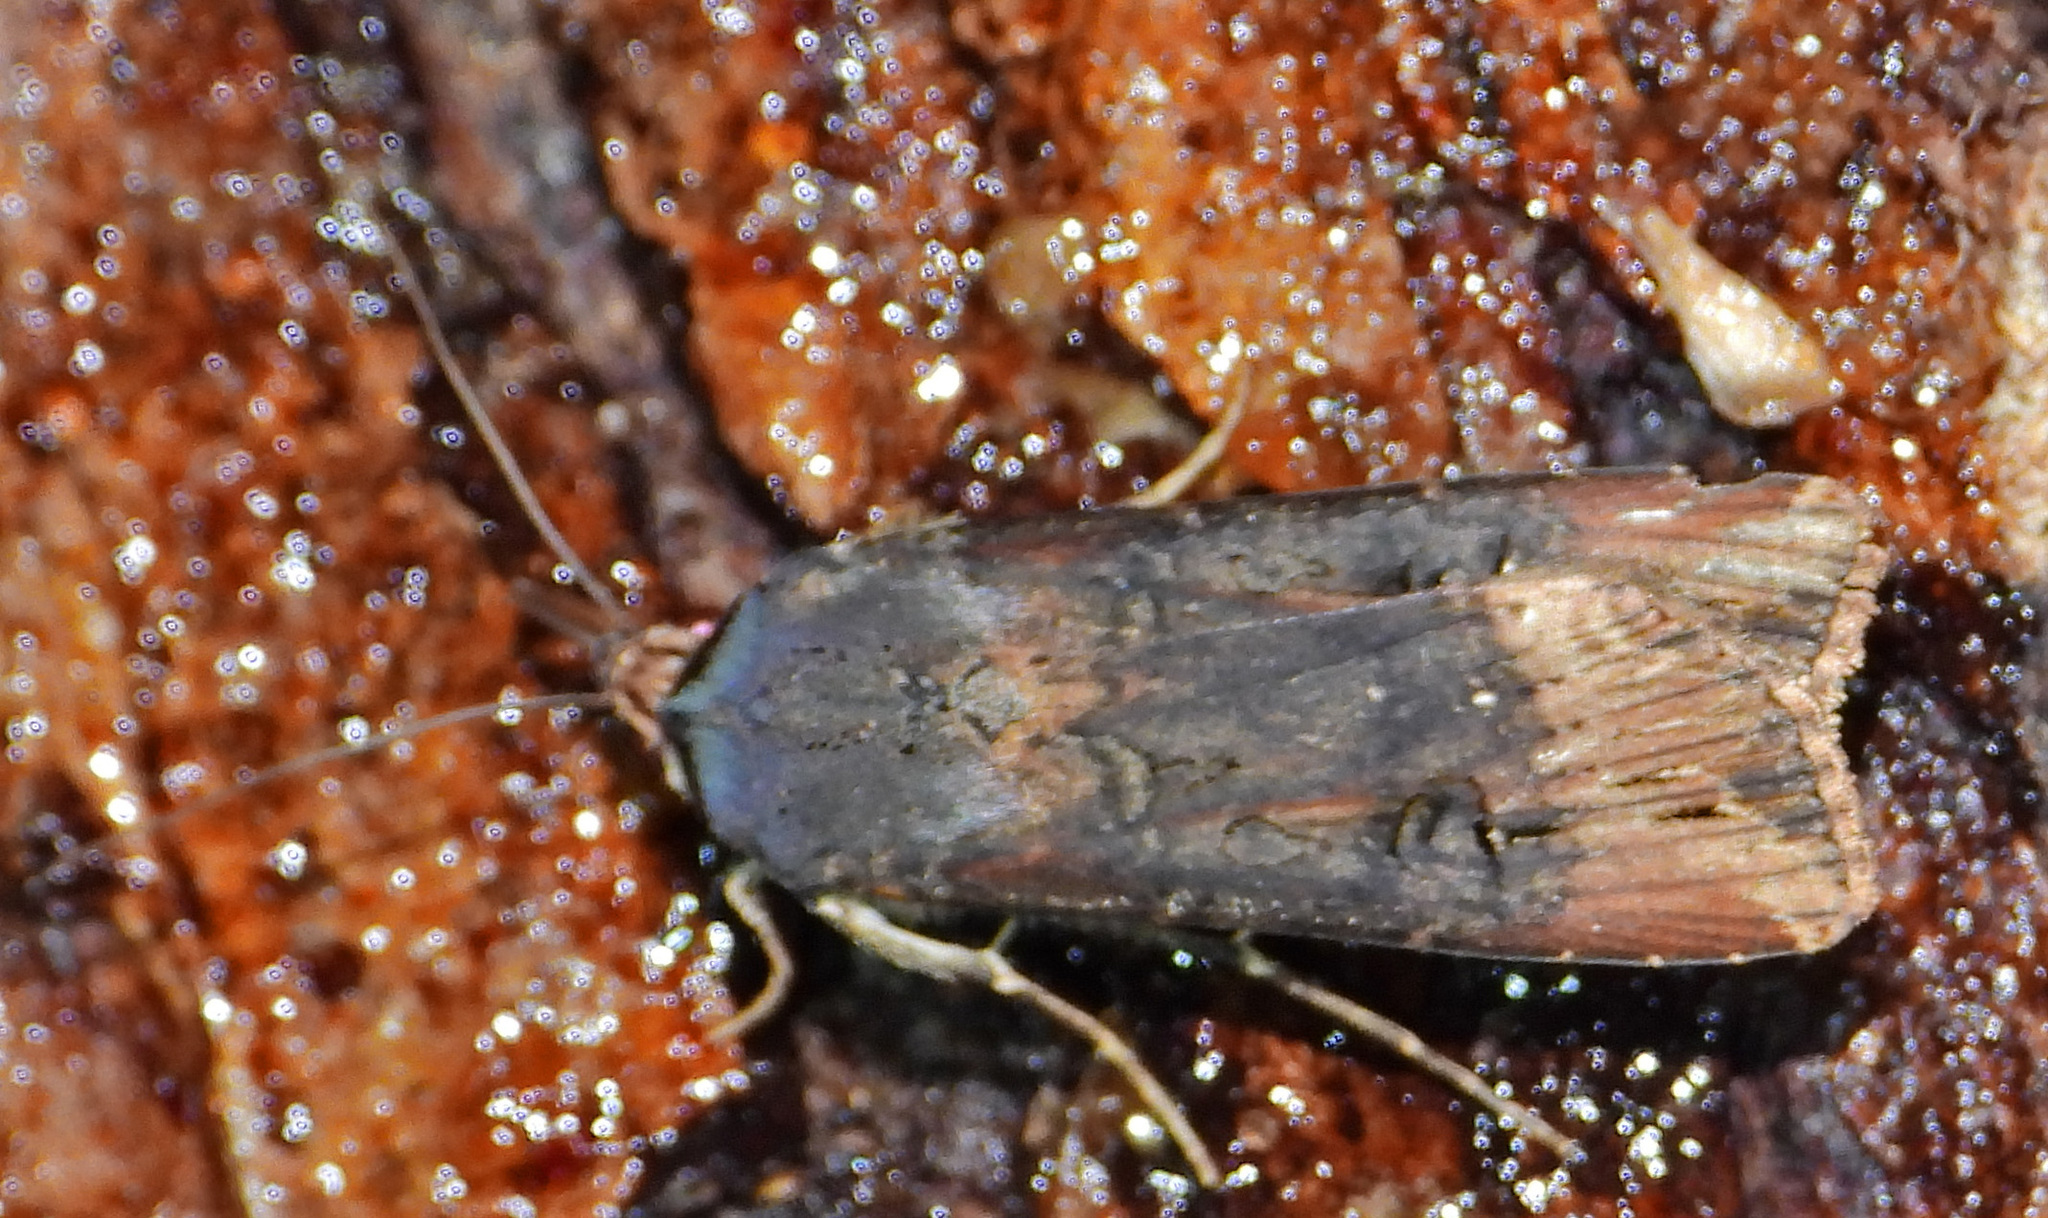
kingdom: Animalia
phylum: Arthropoda
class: Insecta
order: Lepidoptera
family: Noctuidae
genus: Agrotis
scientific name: Agrotis ipsilon
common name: Dark sword-grass
